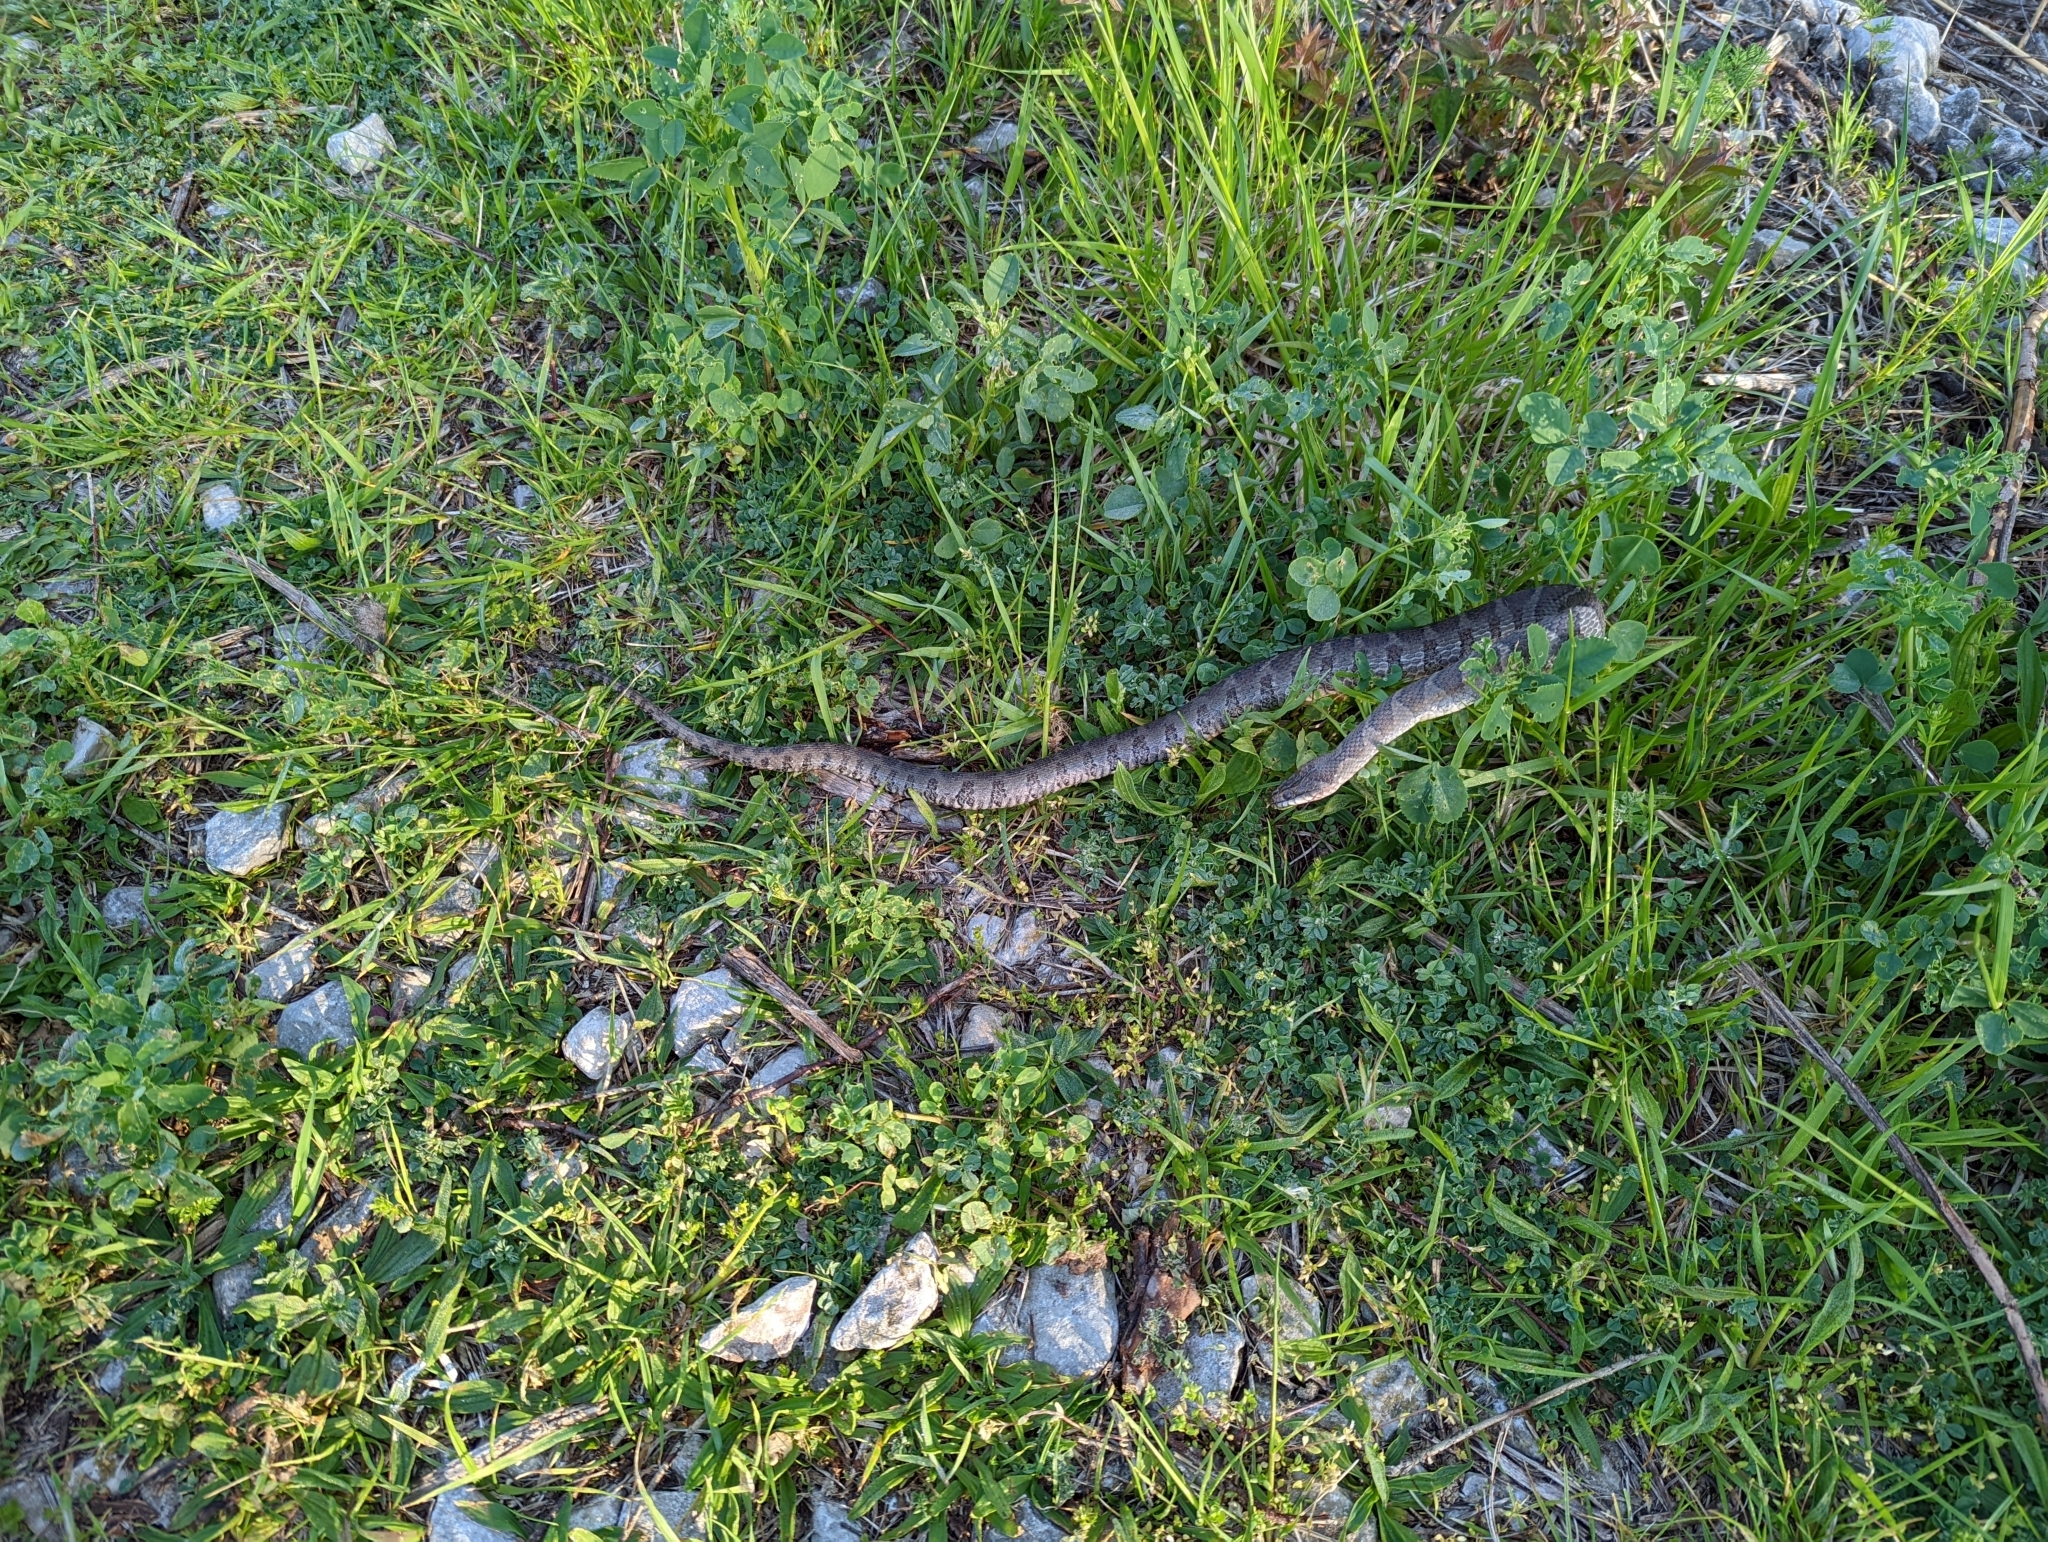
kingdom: Animalia
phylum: Chordata
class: Squamata
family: Colubridae
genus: Nerodia
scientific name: Nerodia sipedon
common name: Northern water snake
